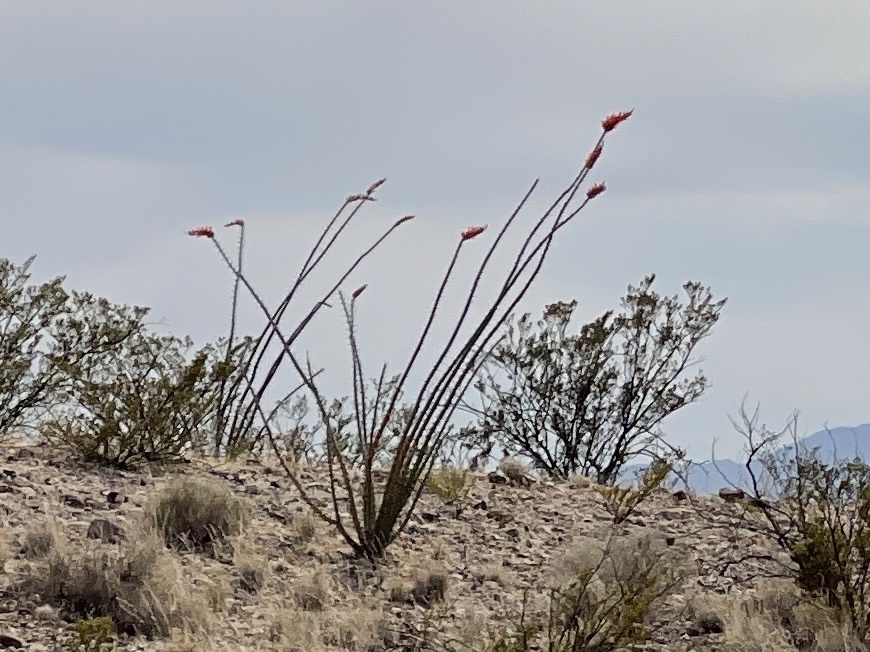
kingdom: Plantae
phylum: Tracheophyta
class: Magnoliopsida
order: Ericales
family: Fouquieriaceae
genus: Fouquieria
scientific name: Fouquieria splendens
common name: Vine-cactus
